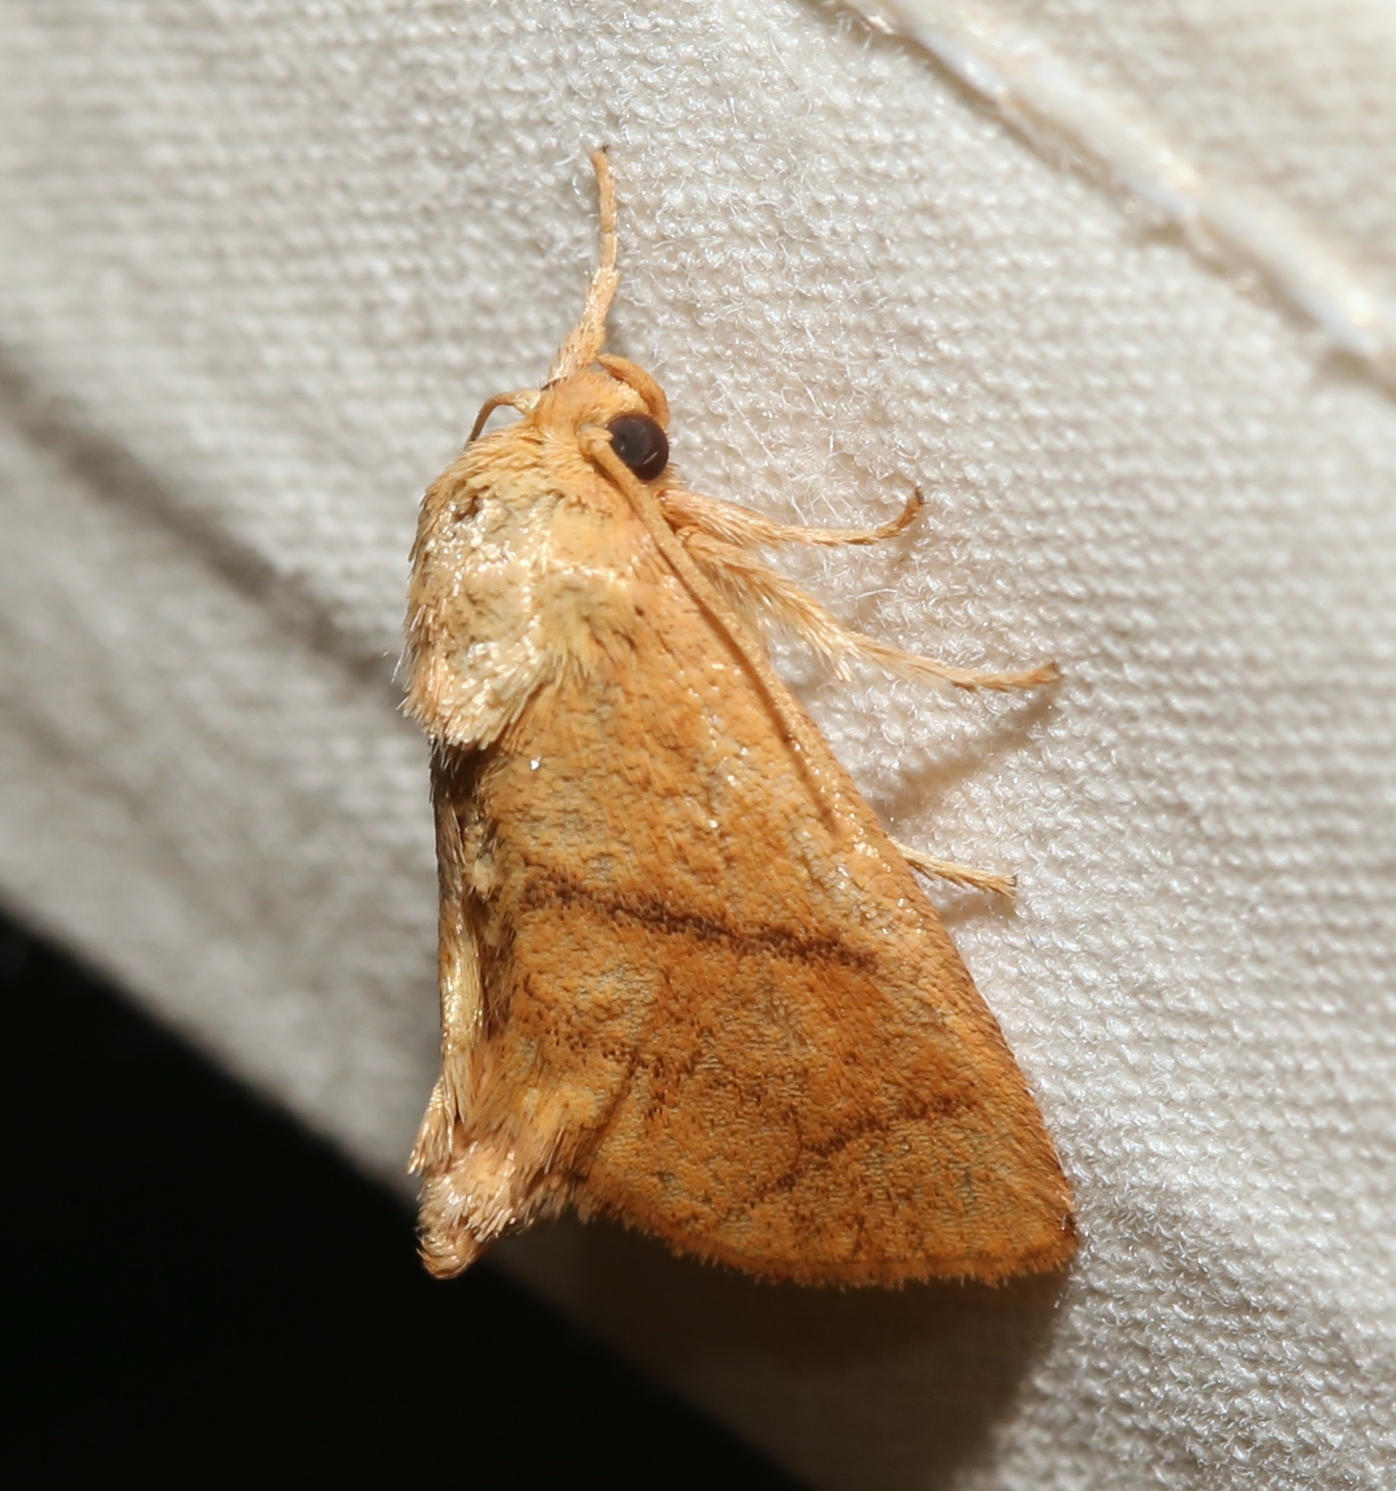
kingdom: Animalia
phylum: Arthropoda
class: Insecta
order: Lepidoptera
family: Limacodidae
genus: Apoda
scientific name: Apoda y-inversa
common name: Yellow-collared slug moth
